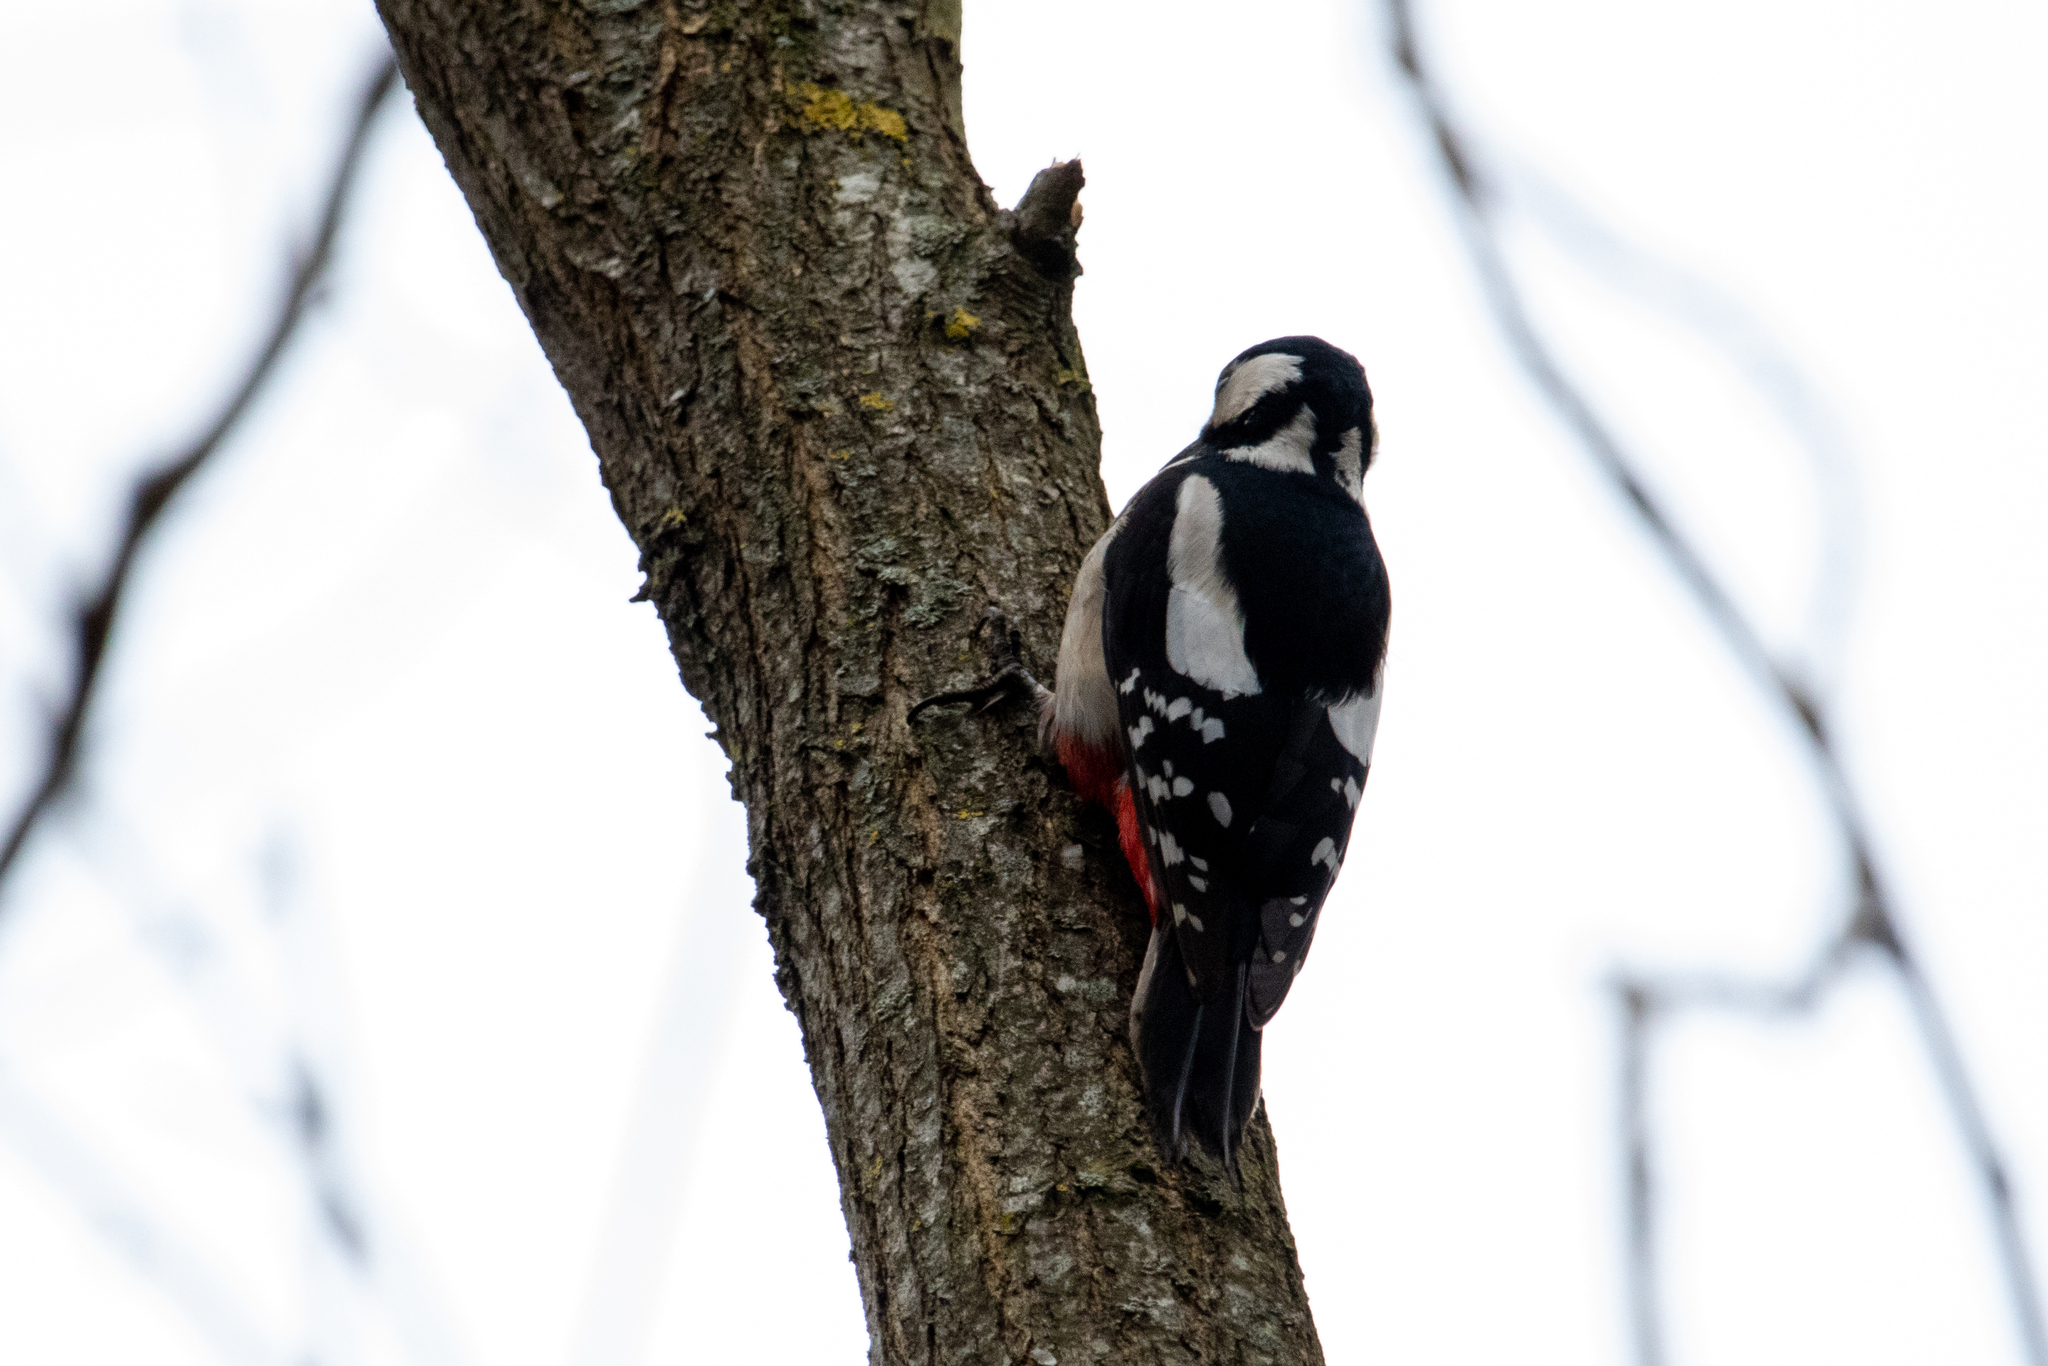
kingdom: Animalia
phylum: Chordata
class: Aves
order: Piciformes
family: Picidae
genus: Dendrocopos
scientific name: Dendrocopos major
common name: Great spotted woodpecker
